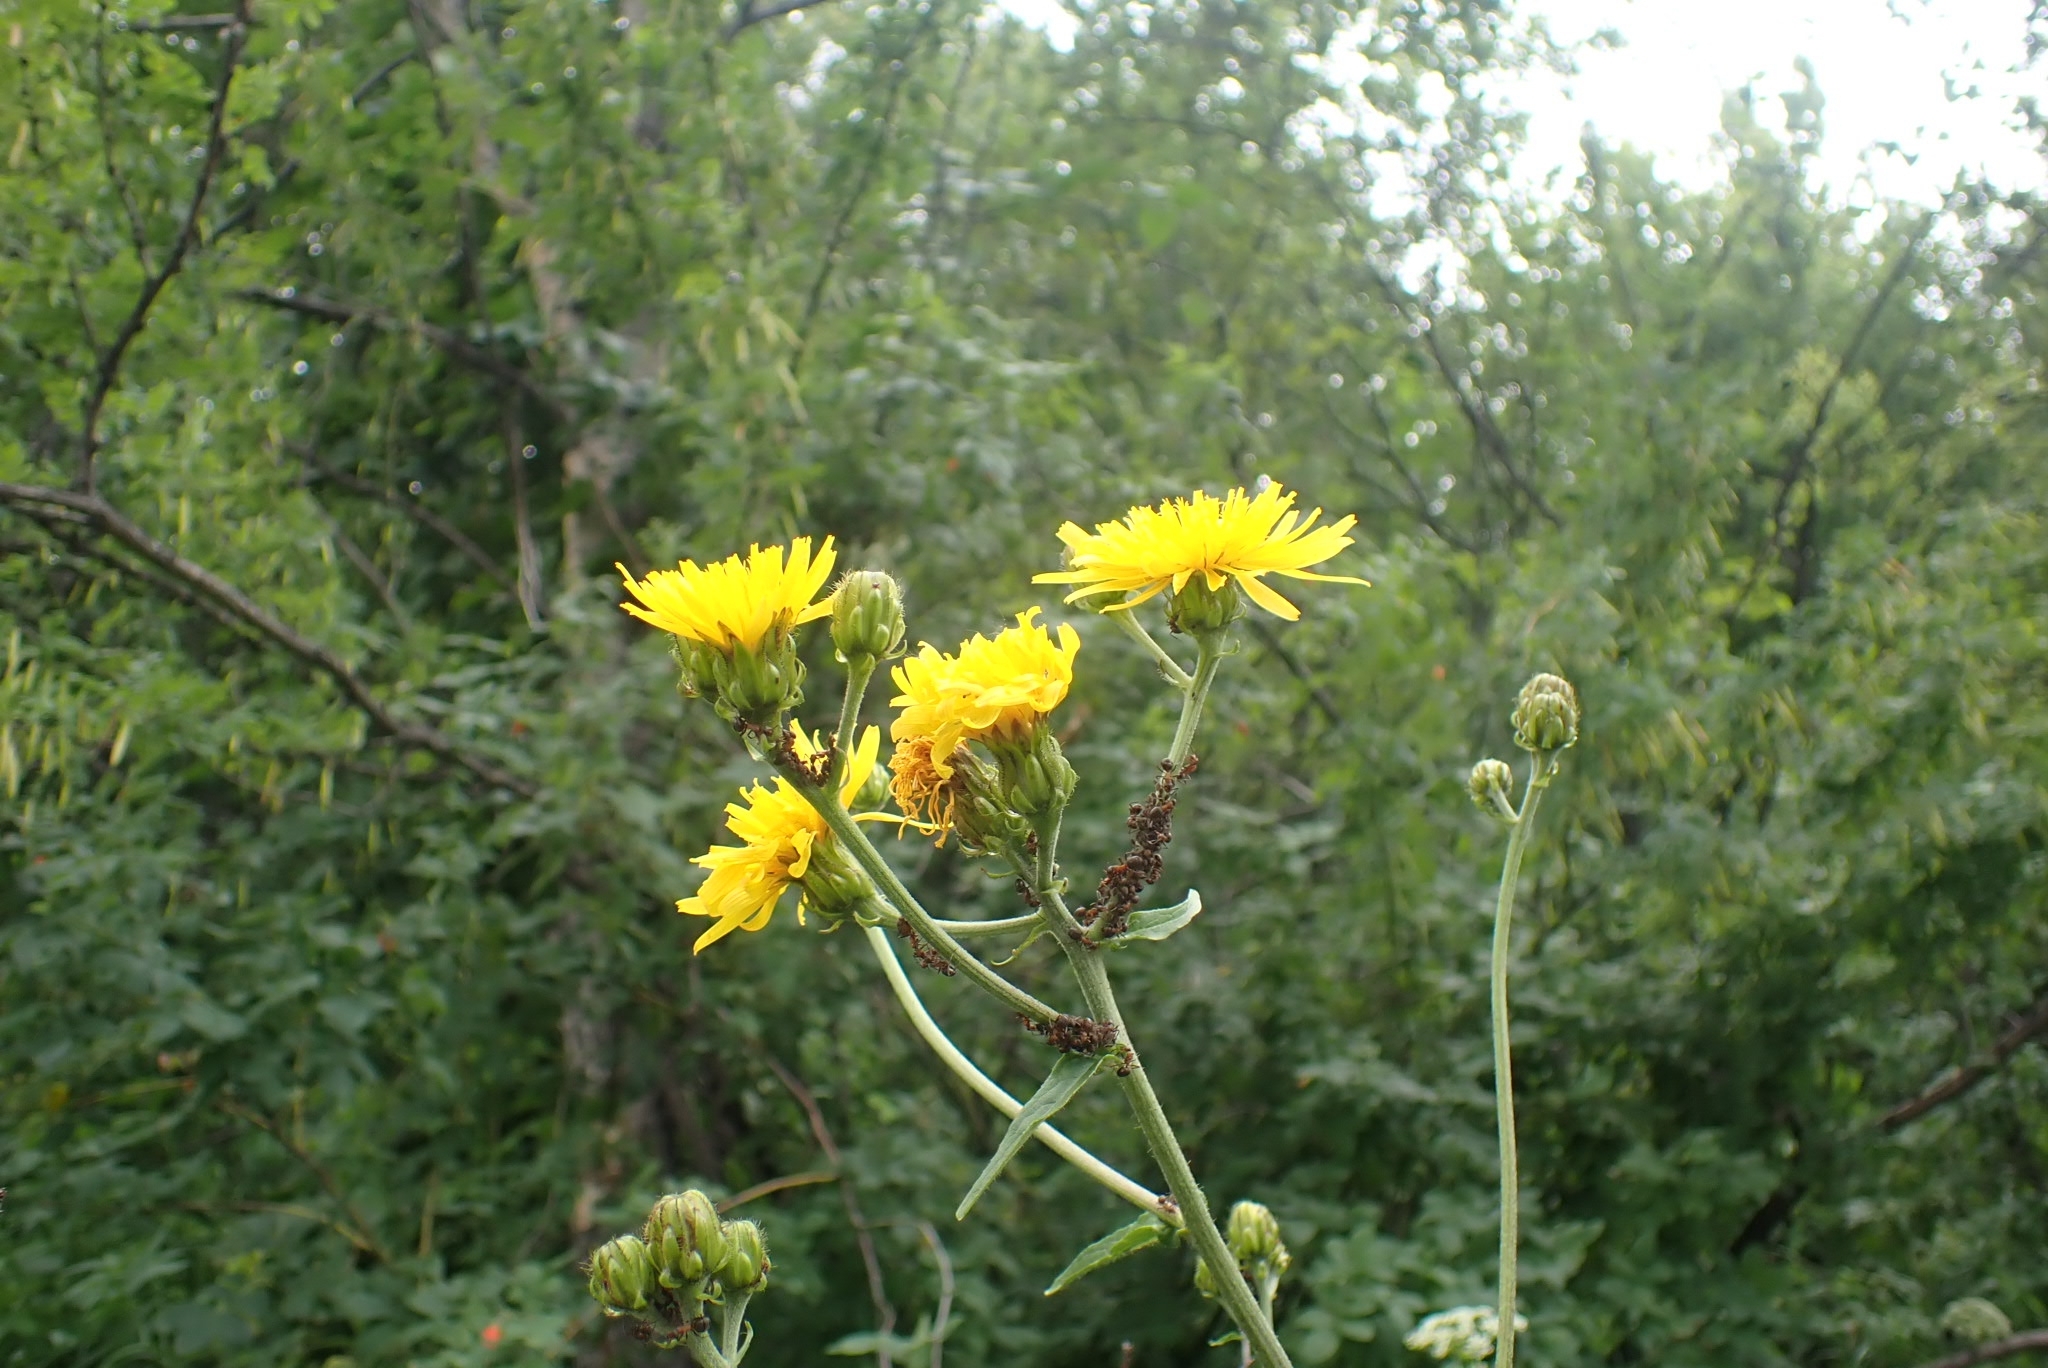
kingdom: Plantae
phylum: Tracheophyta
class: Magnoliopsida
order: Asterales
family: Asteraceae
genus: Crepis
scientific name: Crepis sibirica
